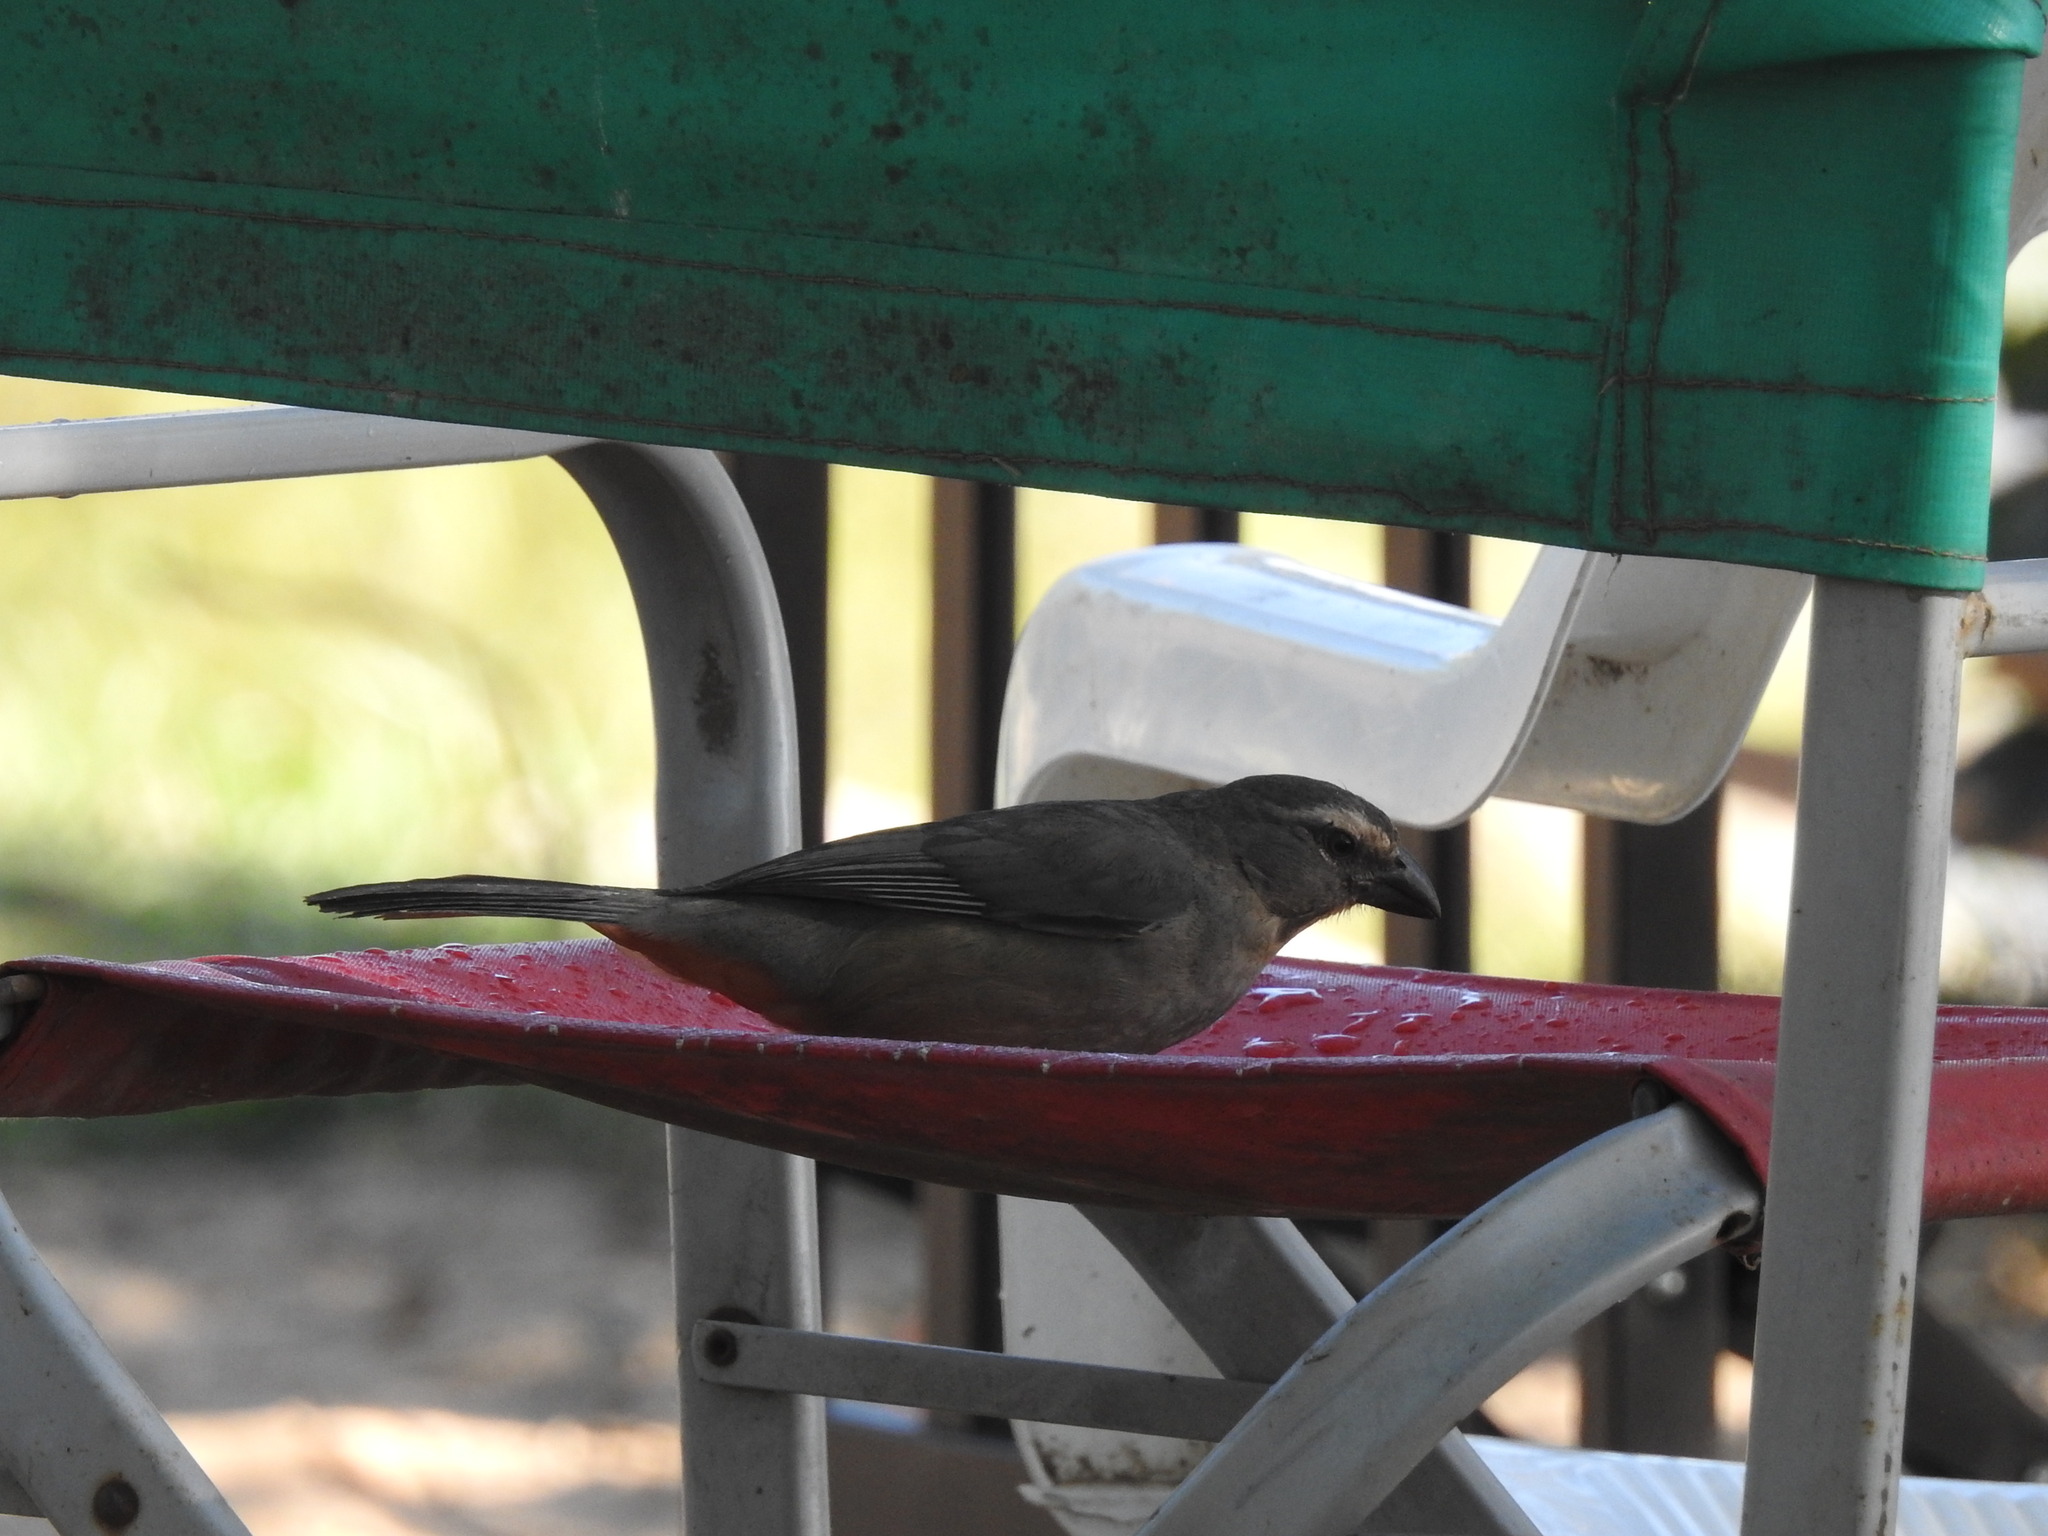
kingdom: Animalia
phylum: Chordata
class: Aves
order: Passeriformes
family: Thraupidae
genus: Saltator
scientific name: Saltator coerulescens
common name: Grayish saltator
